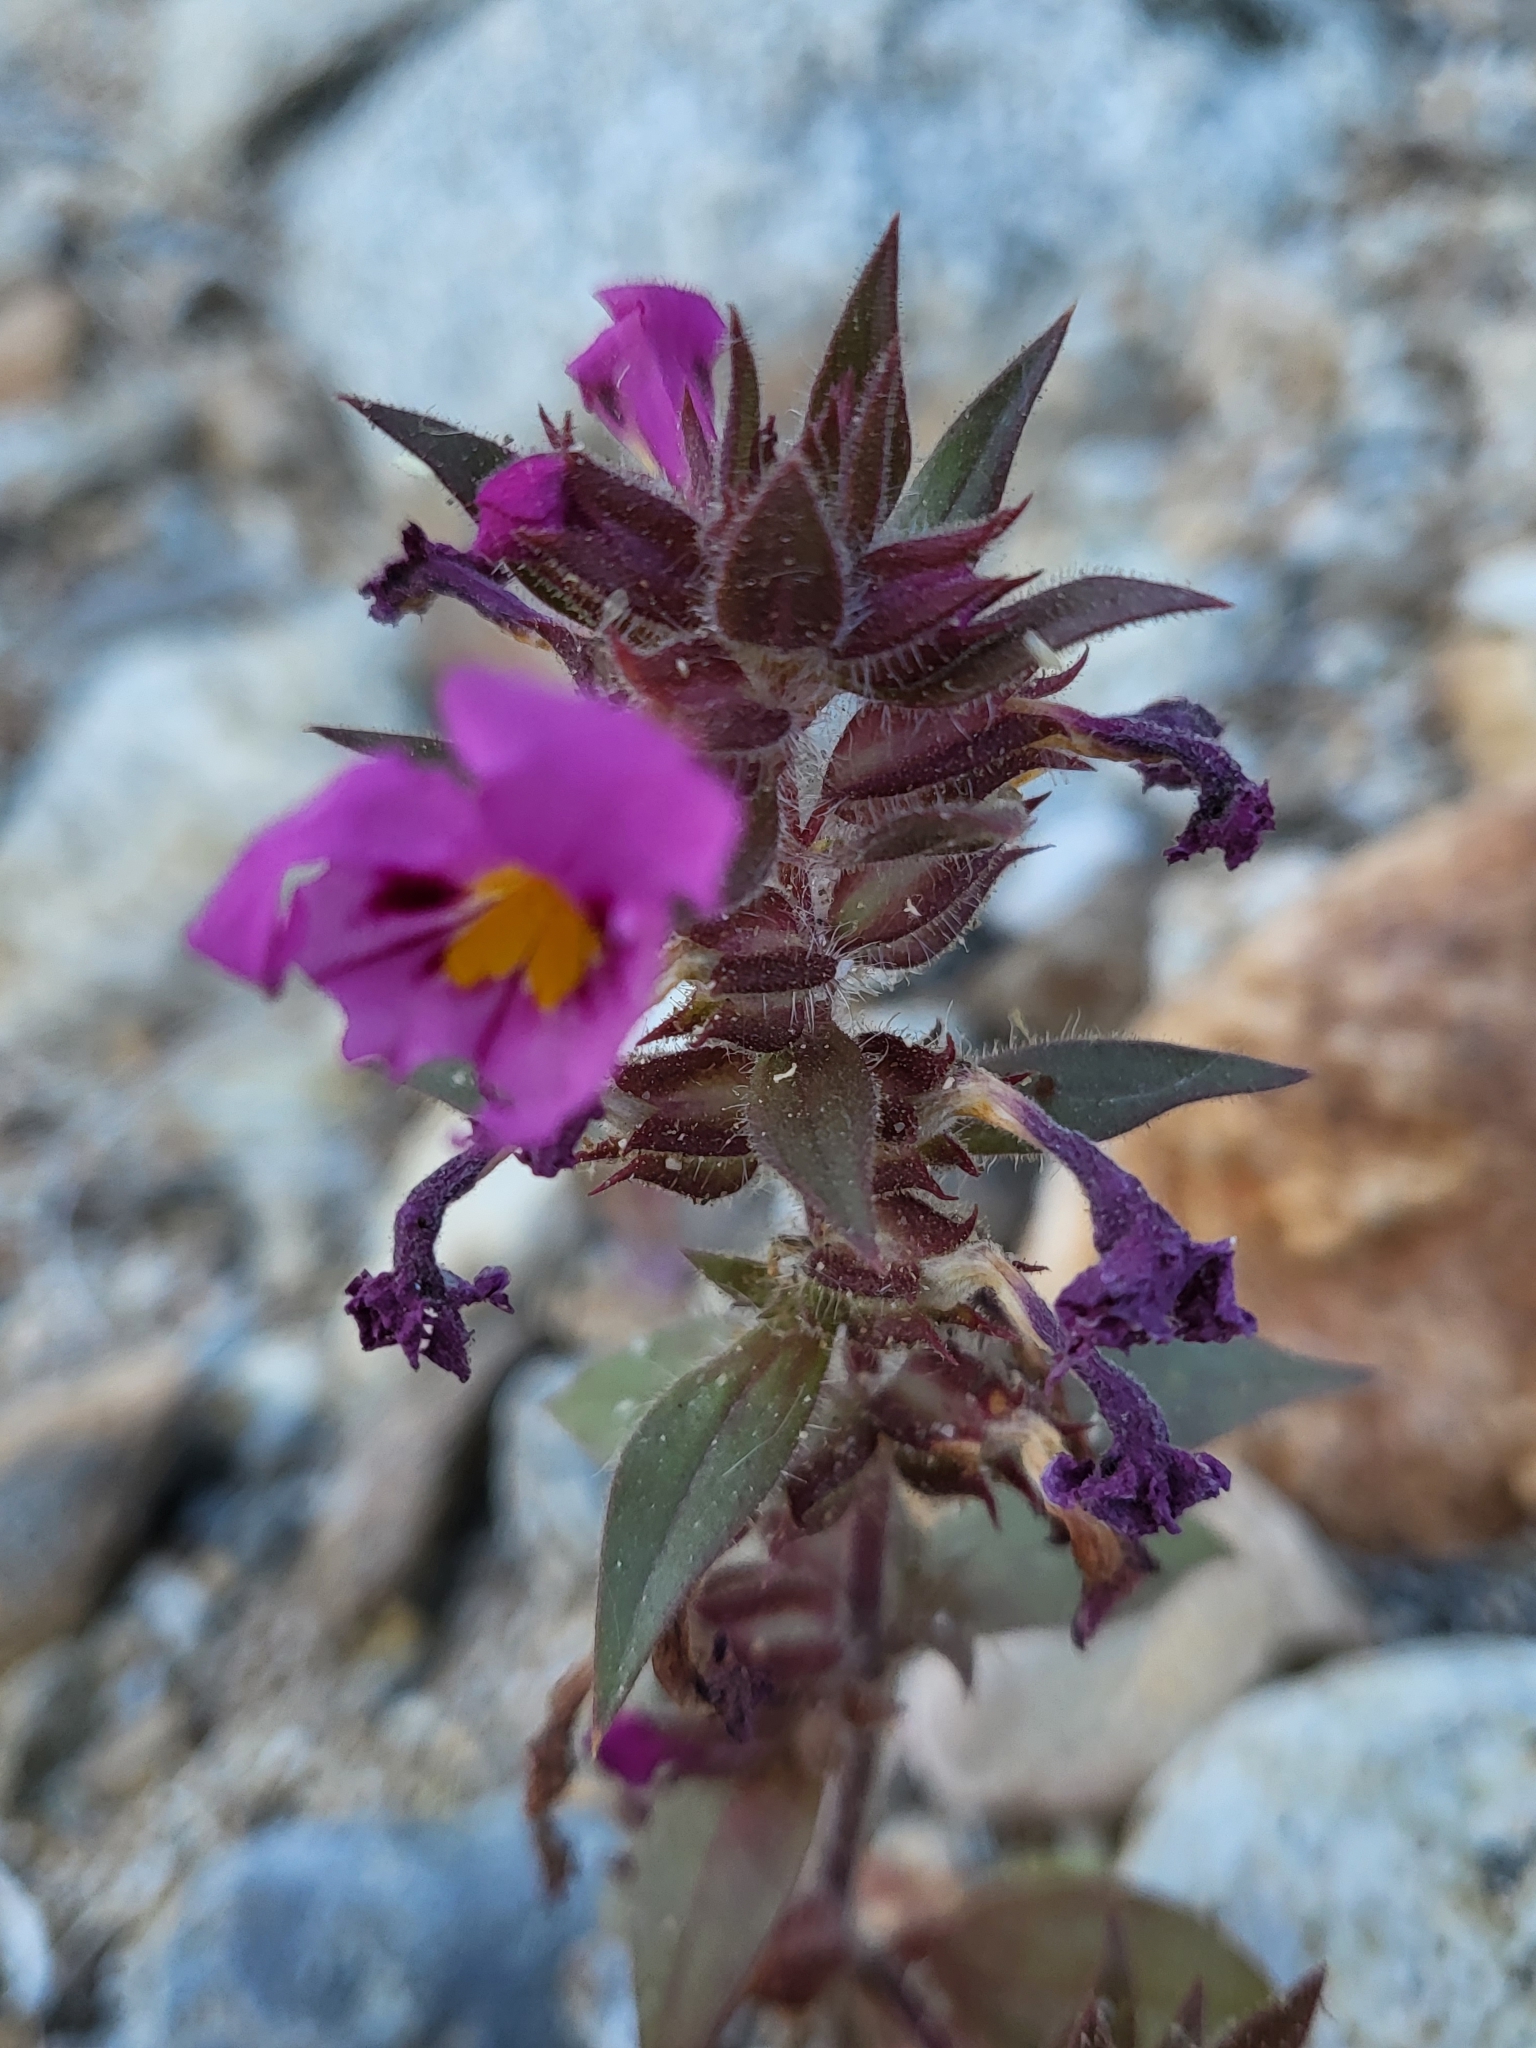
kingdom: Plantae
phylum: Tracheophyta
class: Magnoliopsida
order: Lamiales
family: Phrymaceae
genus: Diplacus
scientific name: Diplacus bigelovii
